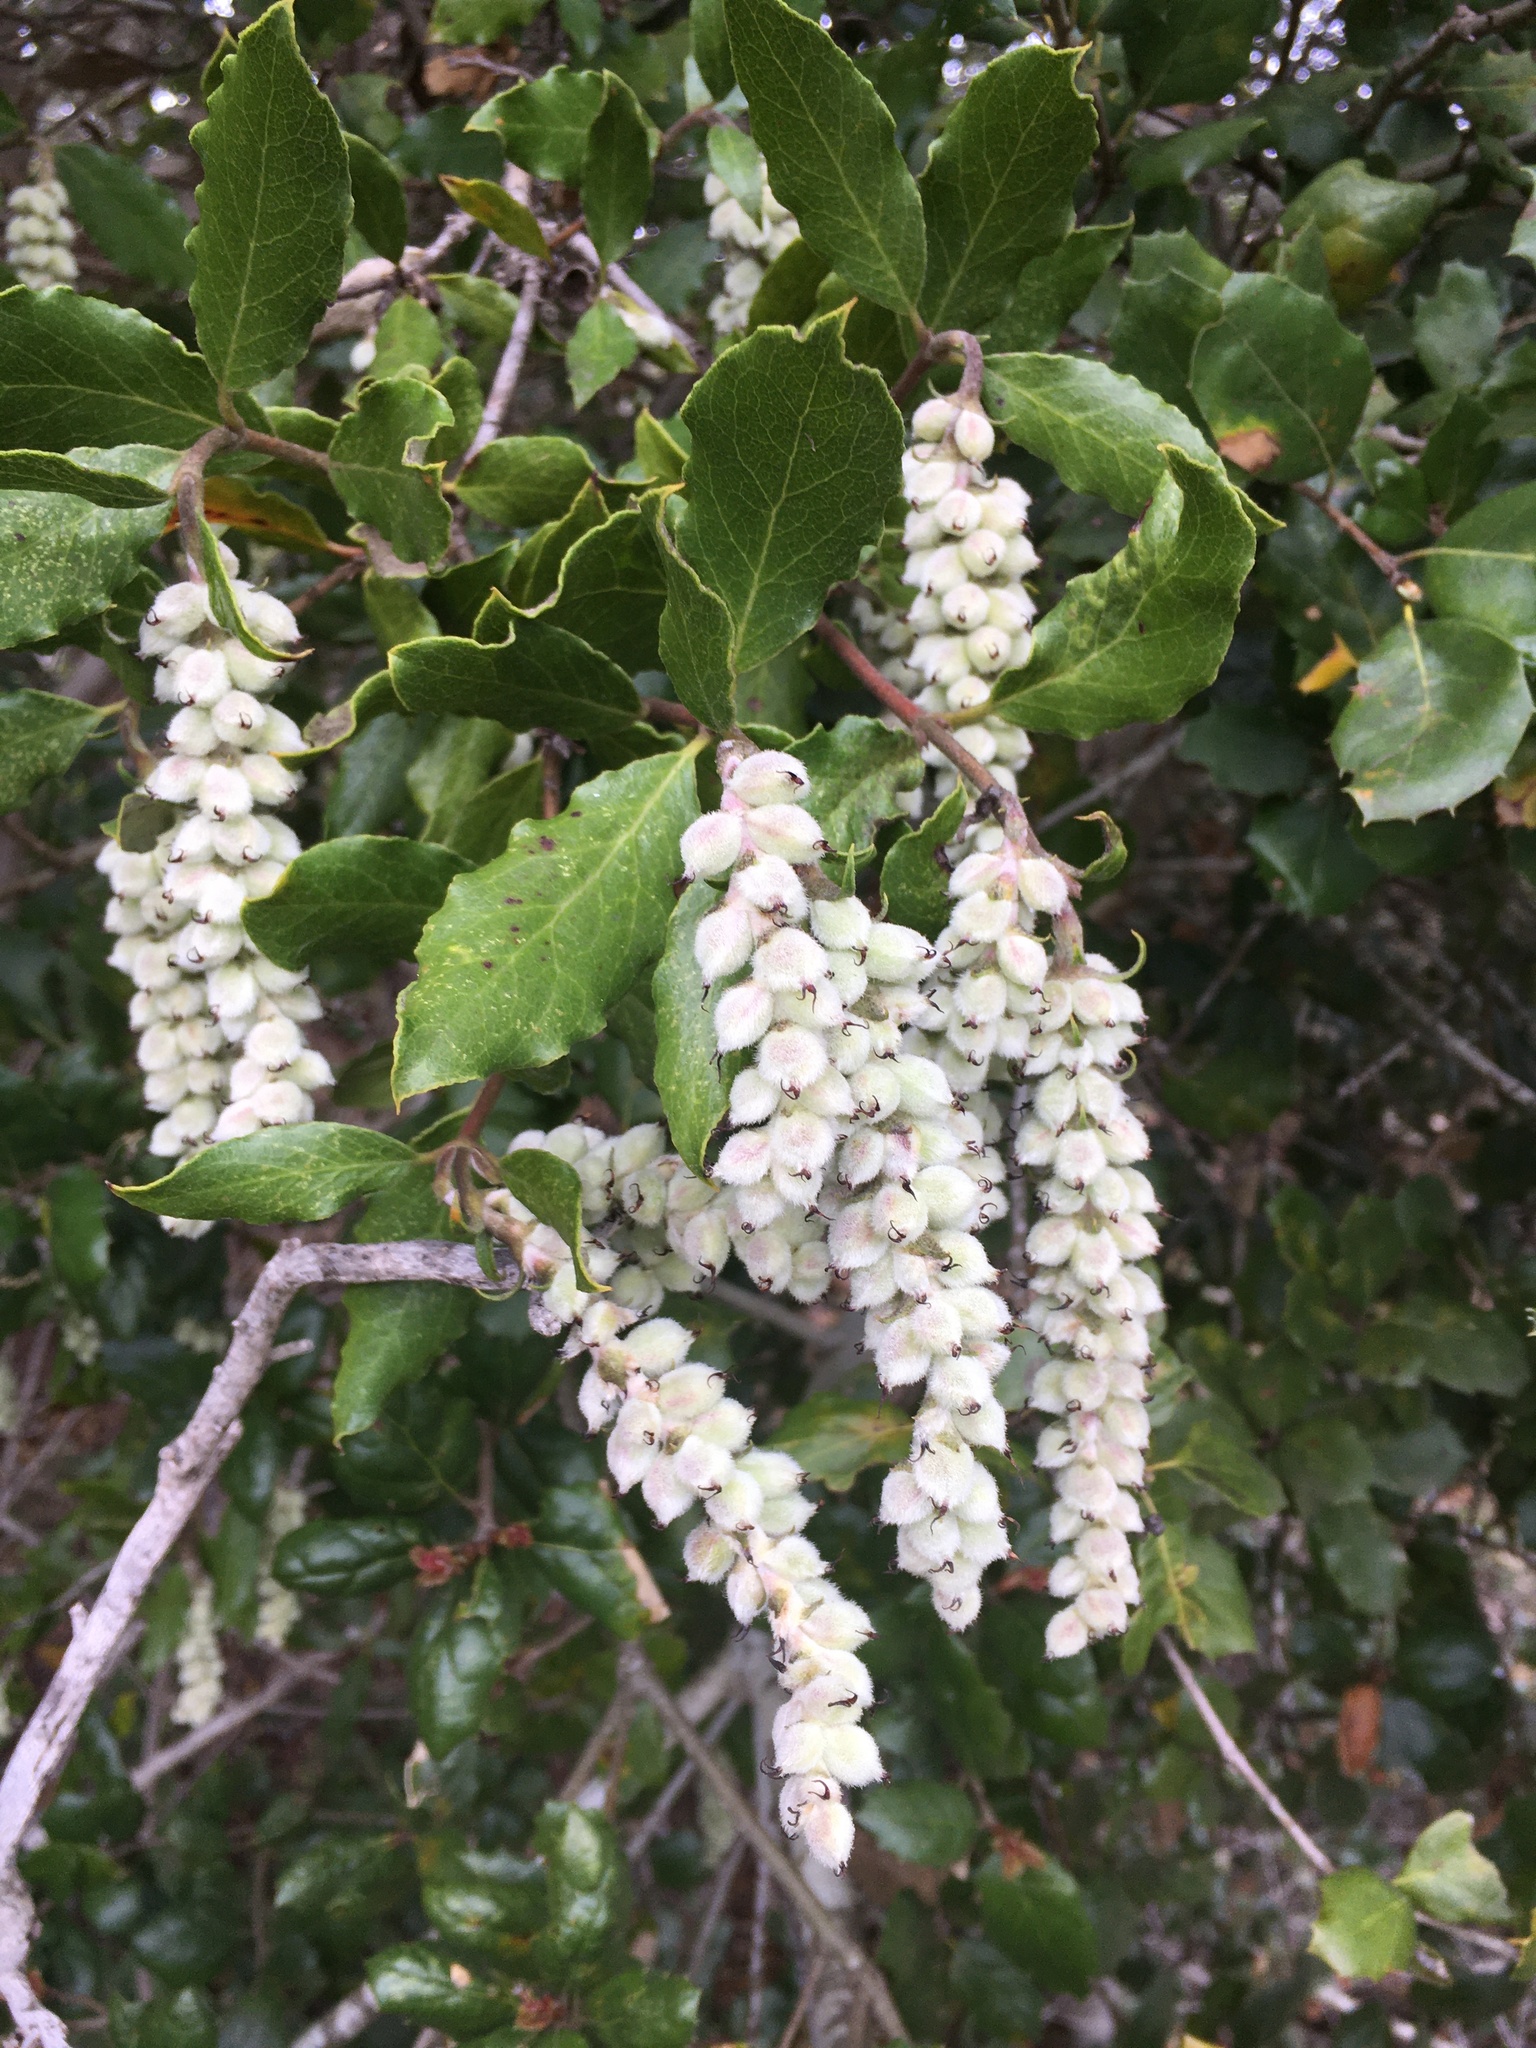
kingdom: Plantae
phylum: Tracheophyta
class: Magnoliopsida
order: Garryales
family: Garryaceae
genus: Garrya
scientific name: Garrya elliptica
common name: Silk-tassel
